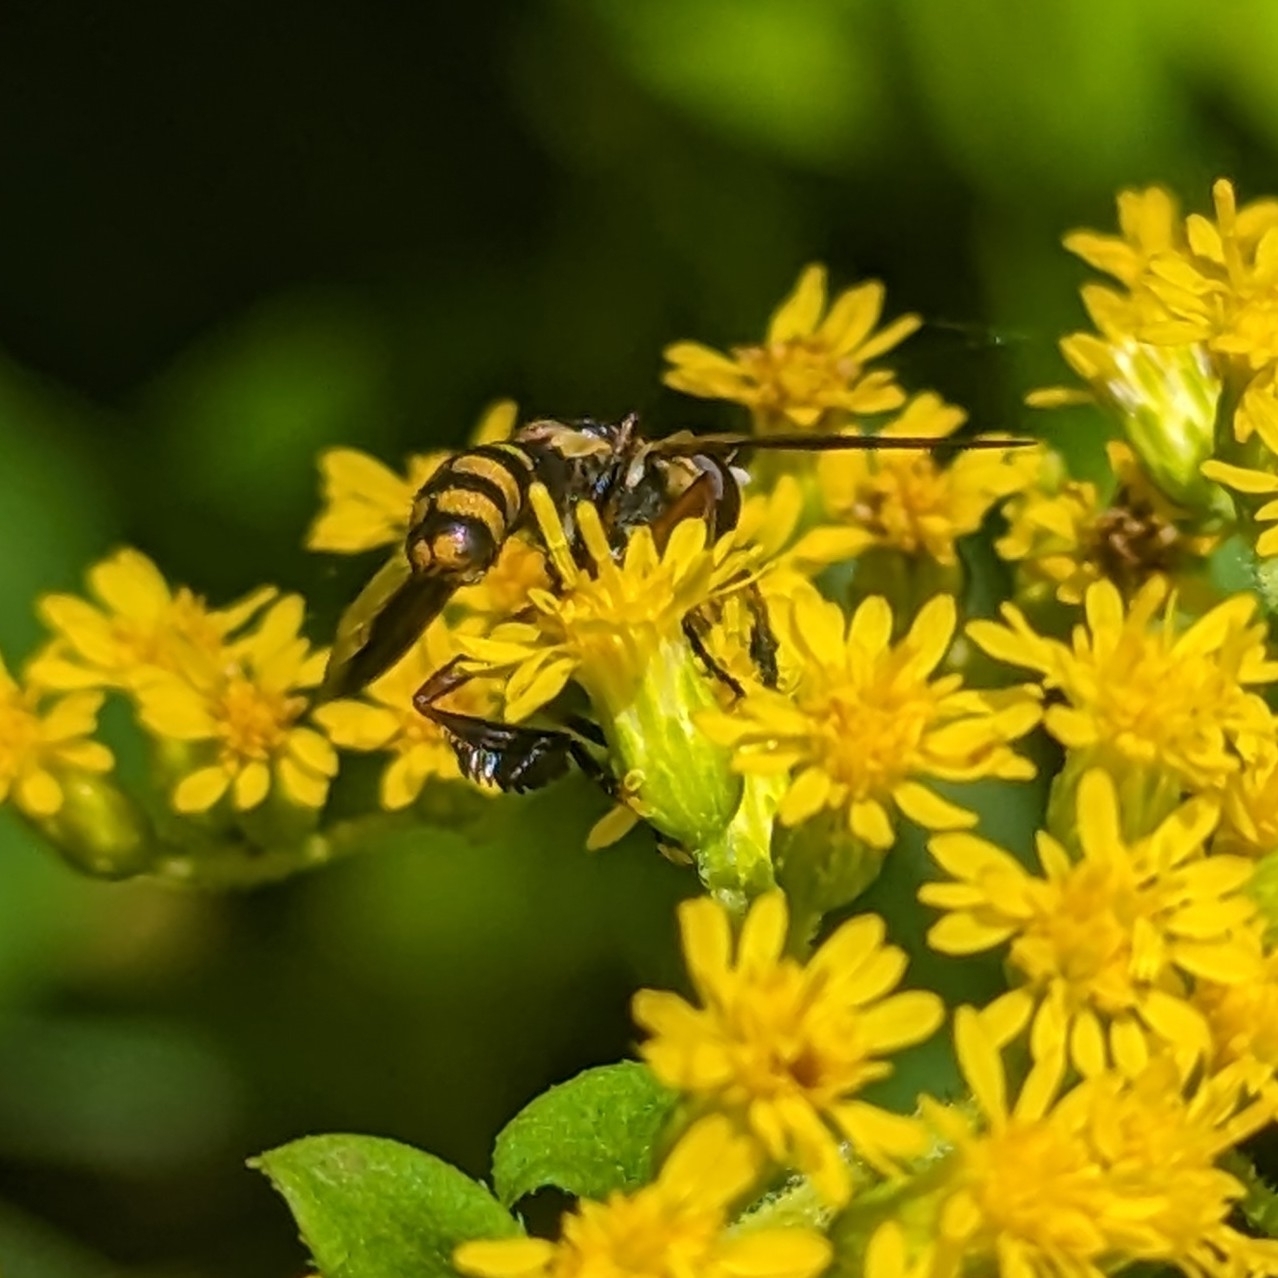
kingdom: Animalia
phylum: Arthropoda
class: Insecta
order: Diptera
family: Tachinidae
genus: Trichopoda
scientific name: Trichopoda plumipes
